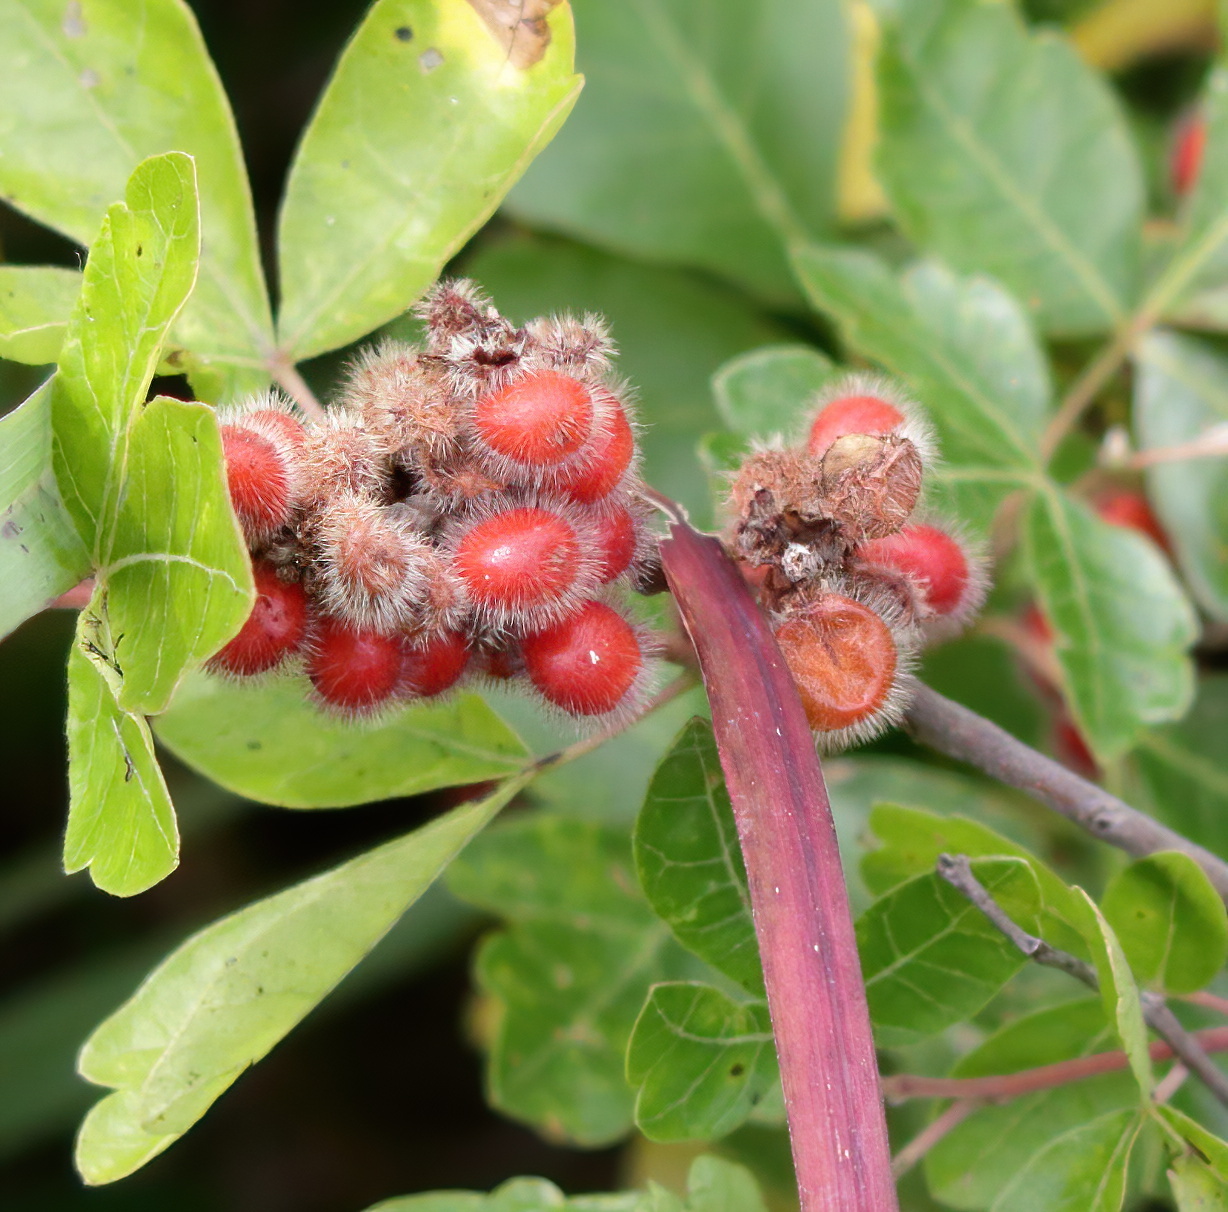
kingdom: Plantae
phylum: Tracheophyta
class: Magnoliopsida
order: Sapindales
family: Anacardiaceae
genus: Rhus
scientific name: Rhus aromatica
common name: Aromatic sumac
